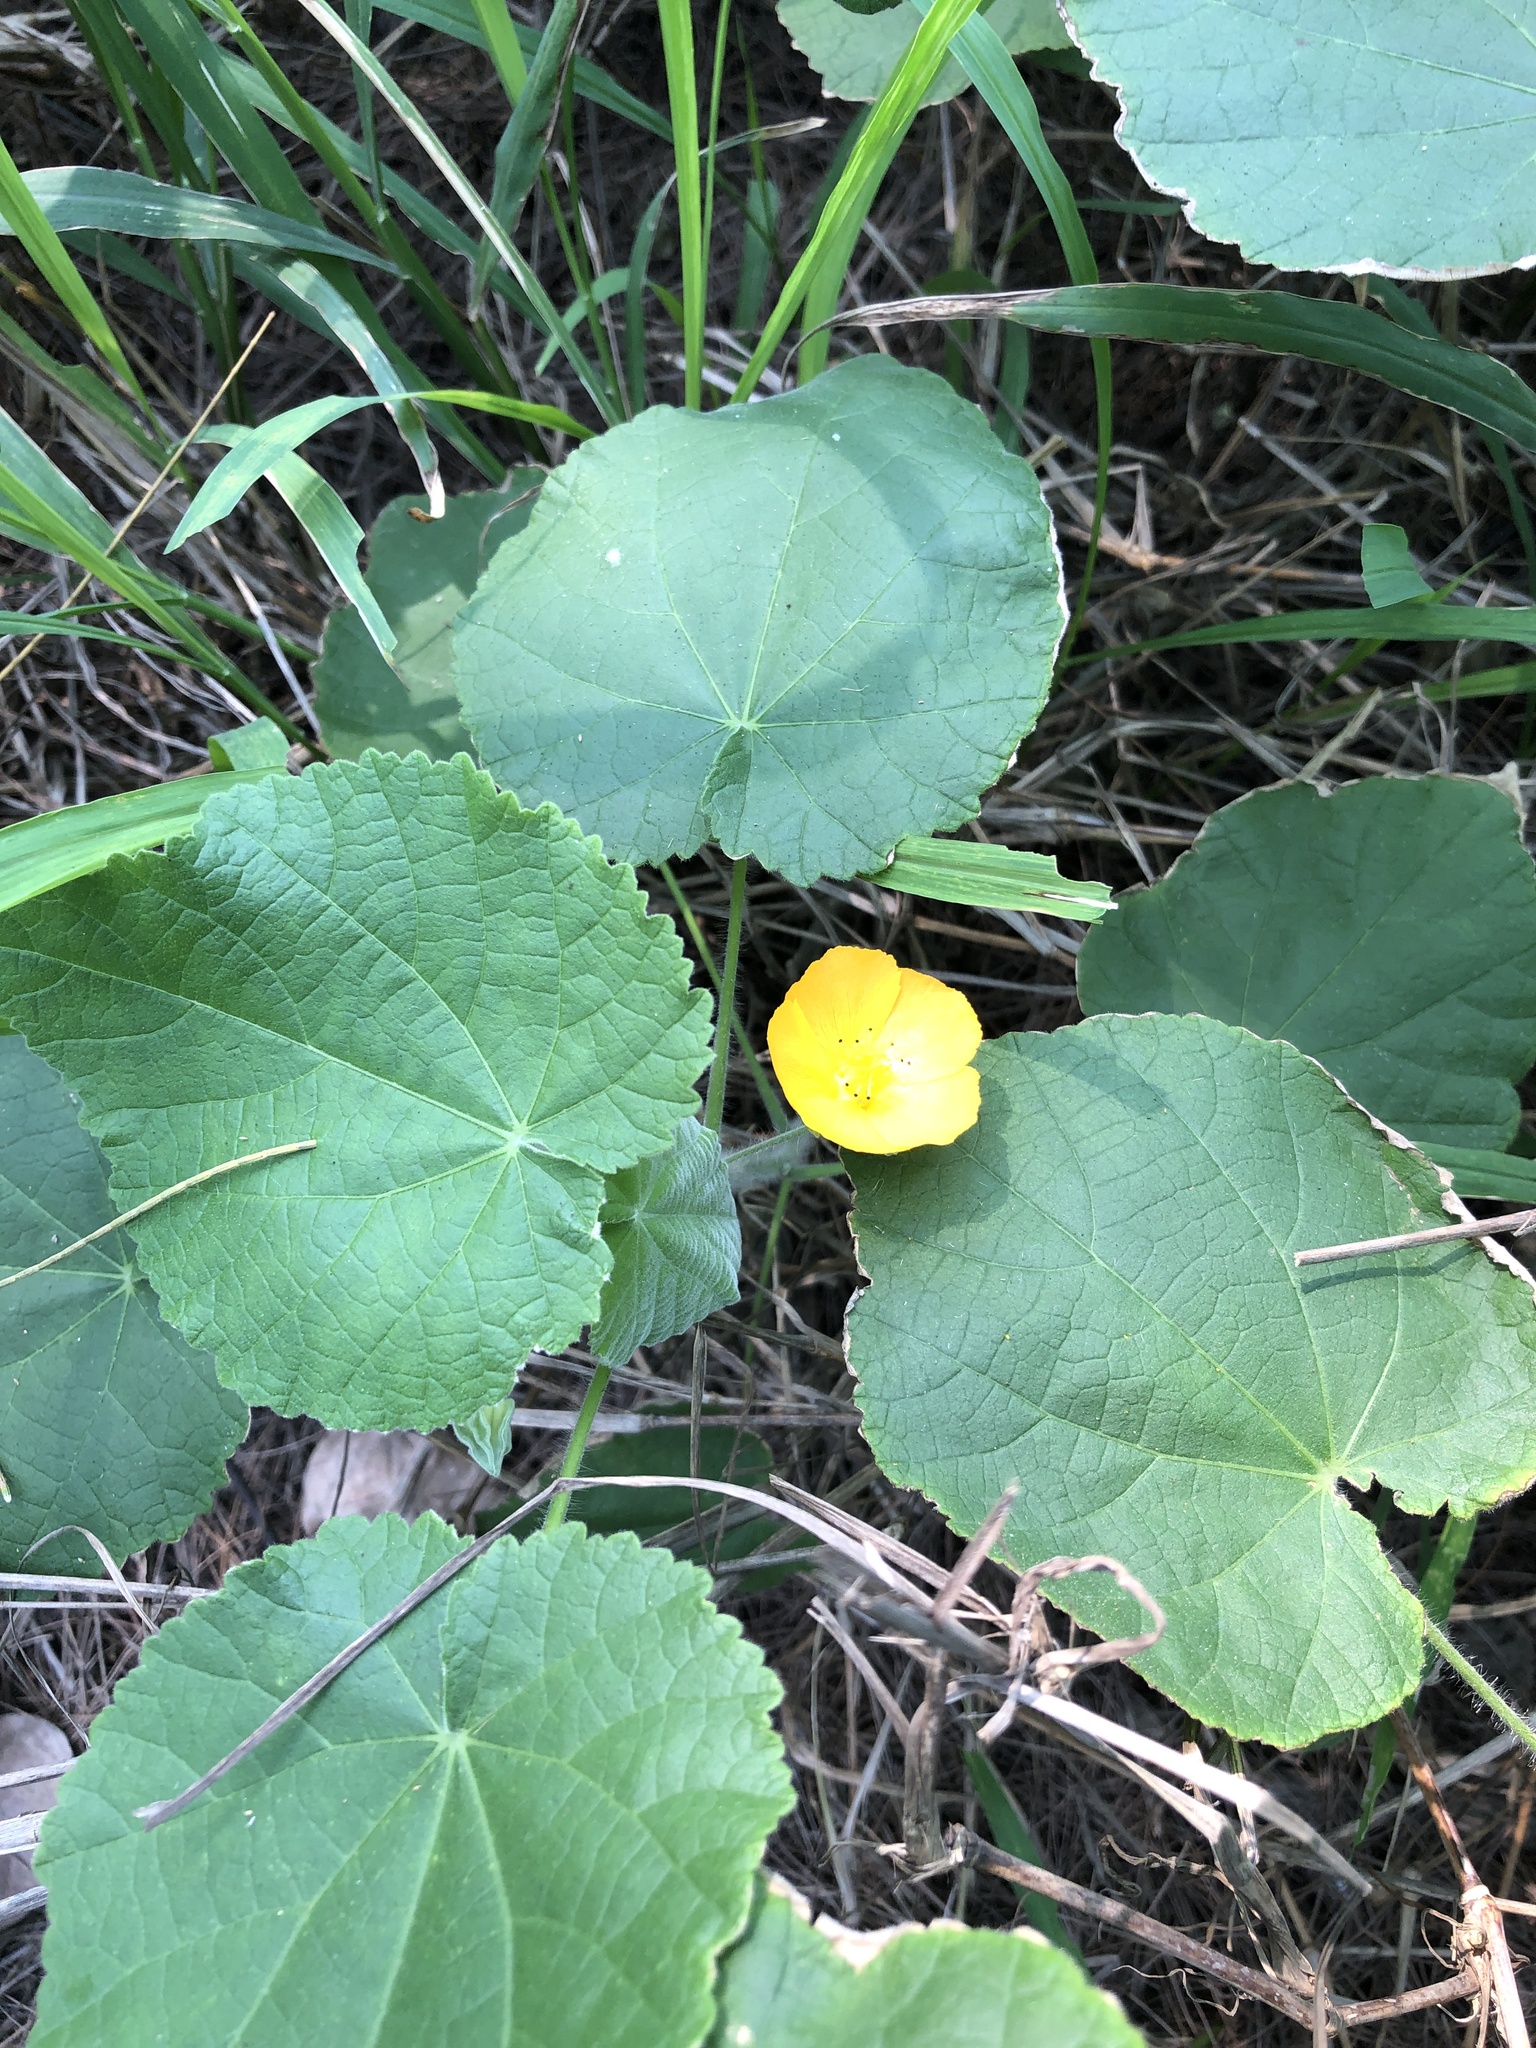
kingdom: Plantae
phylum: Tracheophyta
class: Magnoliopsida
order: Malvales
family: Malvaceae
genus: Abutilon
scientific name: Abutilon grandifolium
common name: Hairy abutilon
